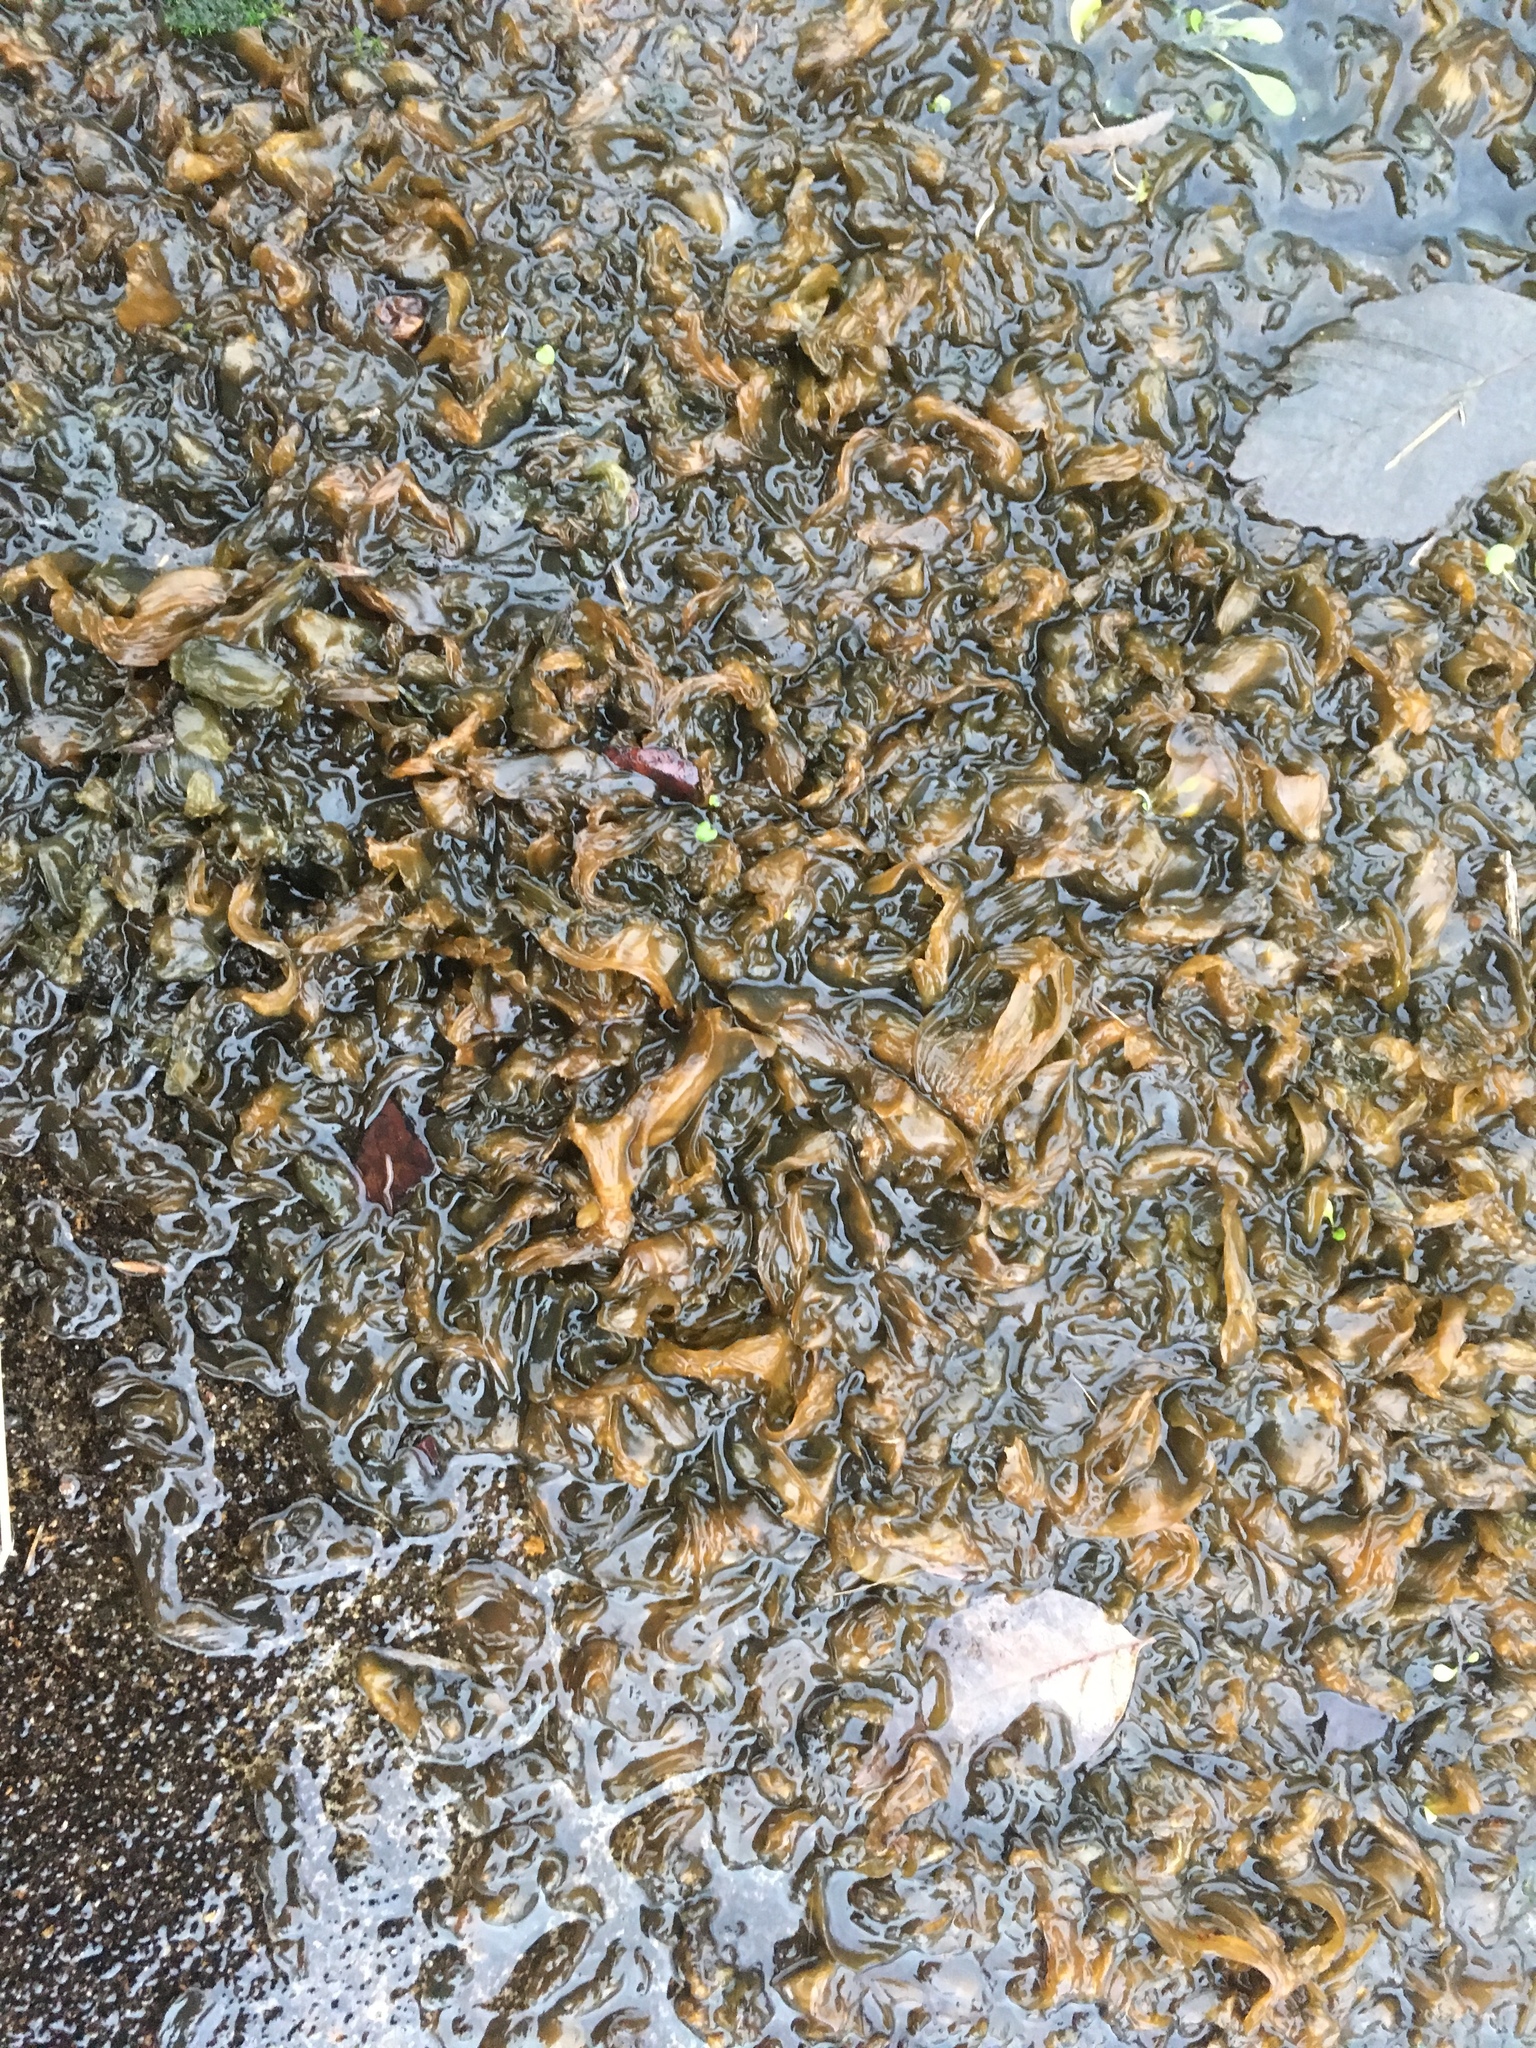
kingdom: Bacteria
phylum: Cyanobacteria
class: Cyanobacteriia
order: Cyanobacteriales
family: Nostocaceae
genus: Nostoc
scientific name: Nostoc commune
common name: Star jelly
